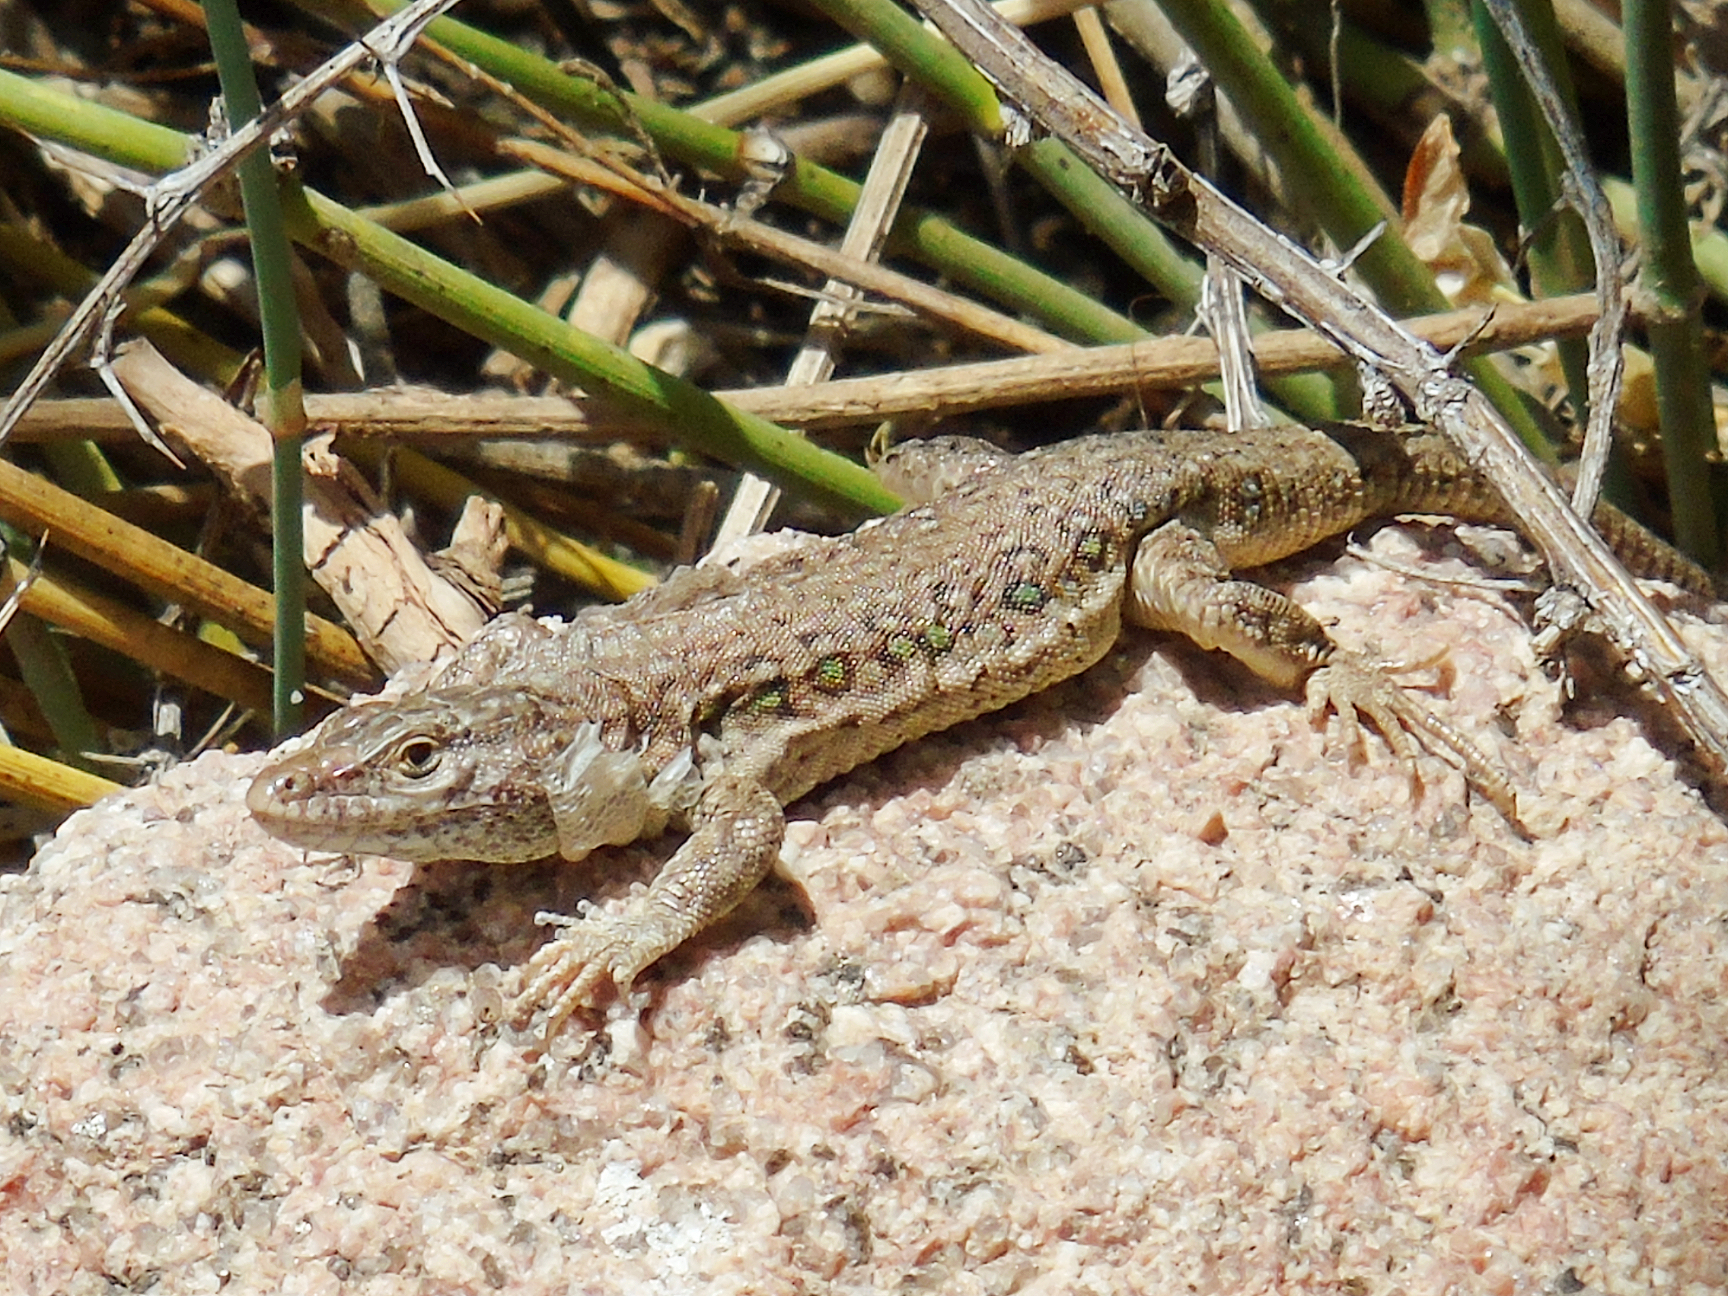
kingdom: Animalia
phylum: Chordata
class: Squamata
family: Lacertidae
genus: Eremias
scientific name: Eremias stummeri
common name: Stummer’s racerunner
